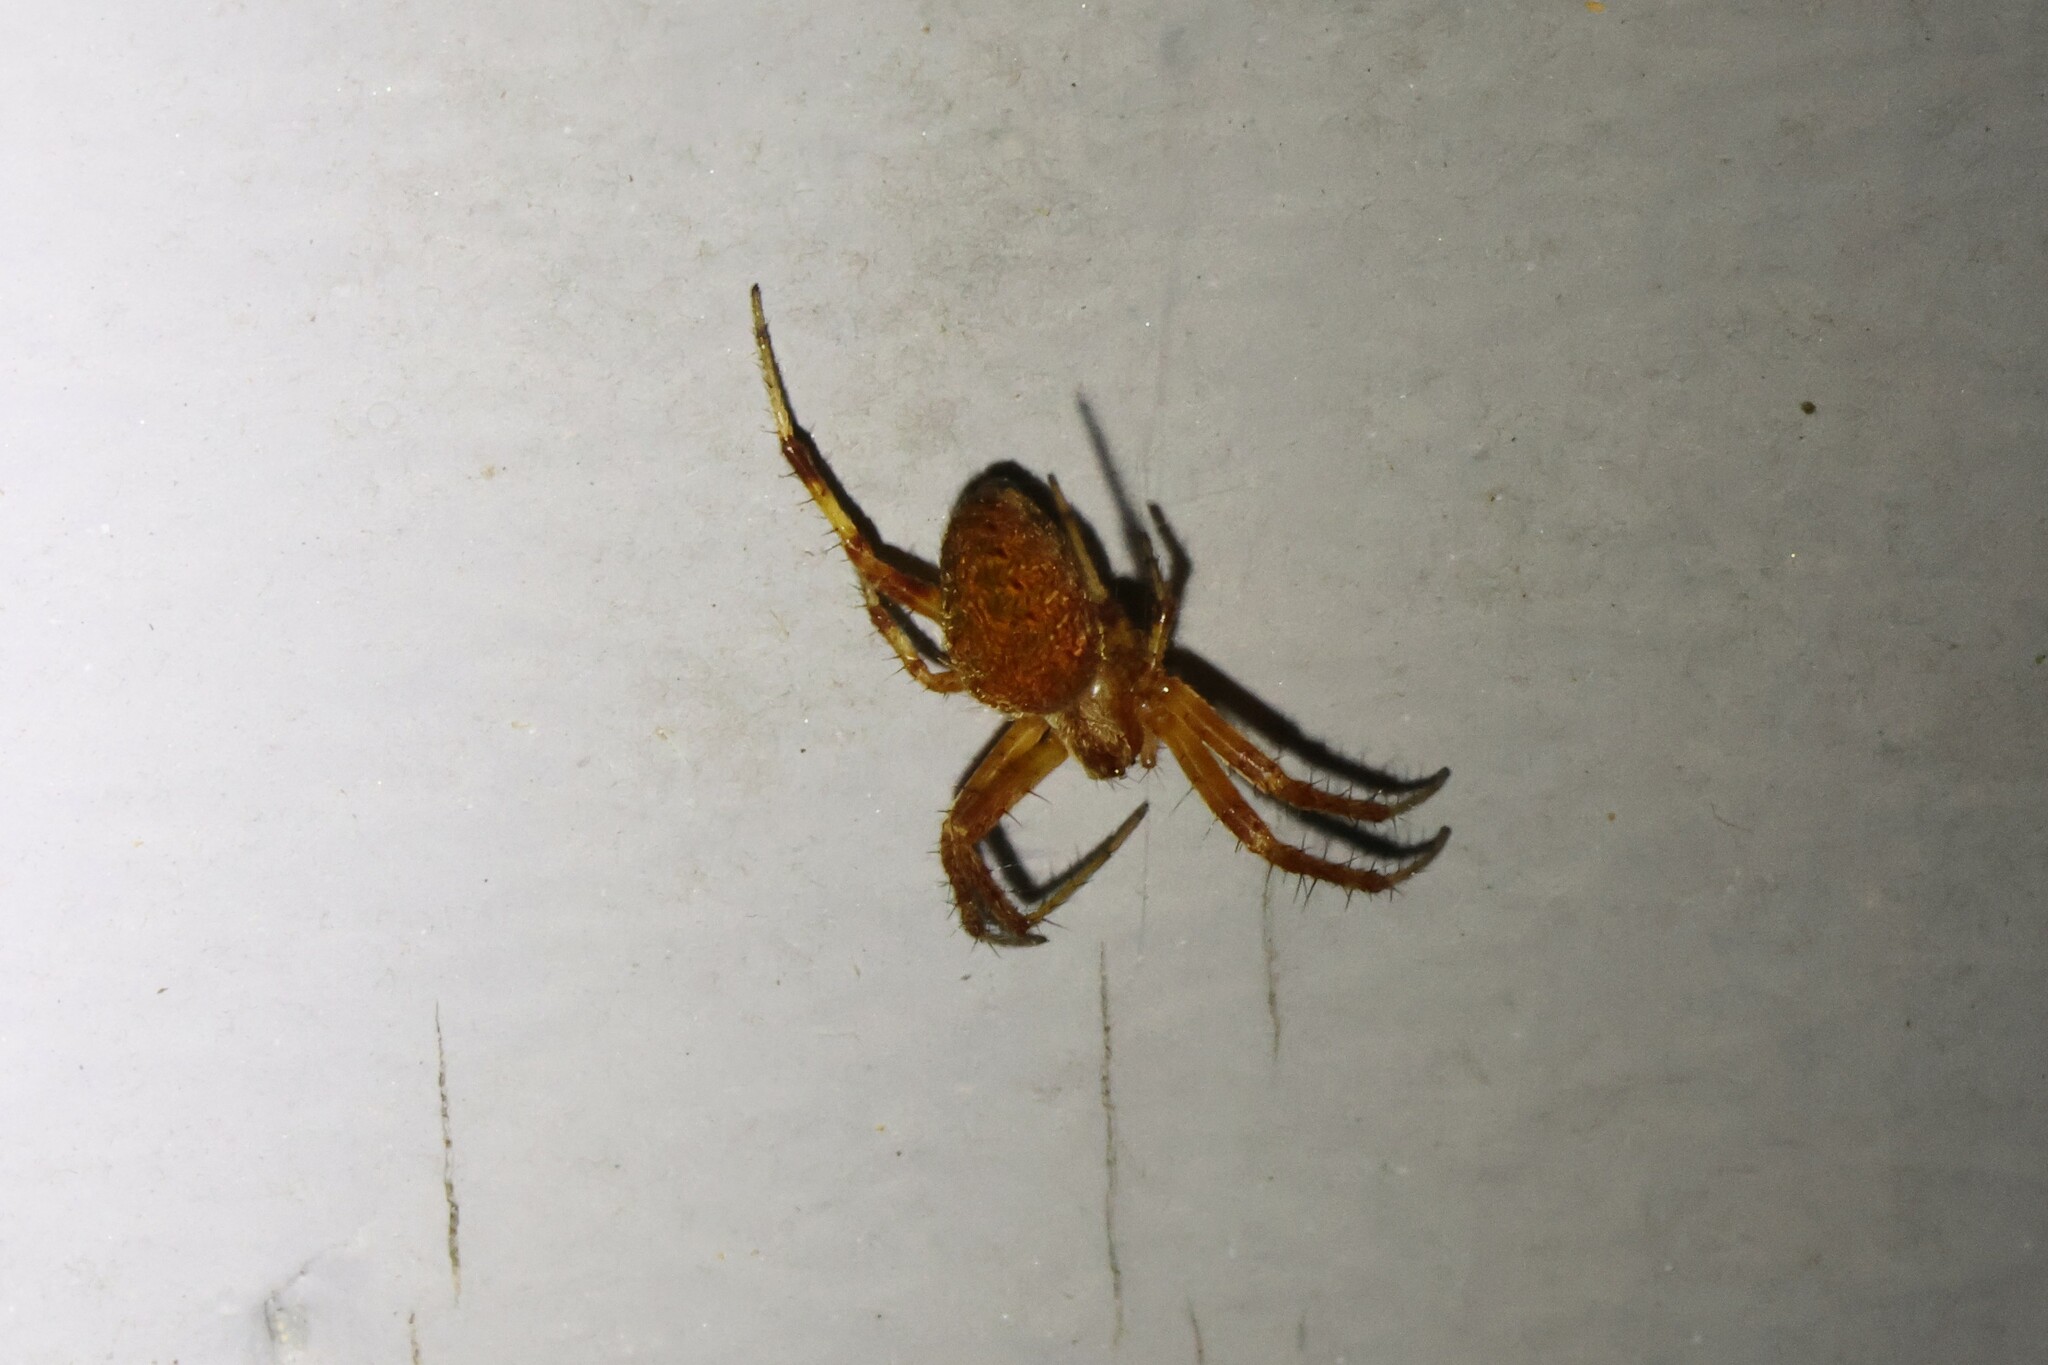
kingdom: Animalia
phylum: Arthropoda
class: Arachnida
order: Araneae
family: Araneidae
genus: Araneus
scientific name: Araneus diadematus
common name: Cross orbweaver
